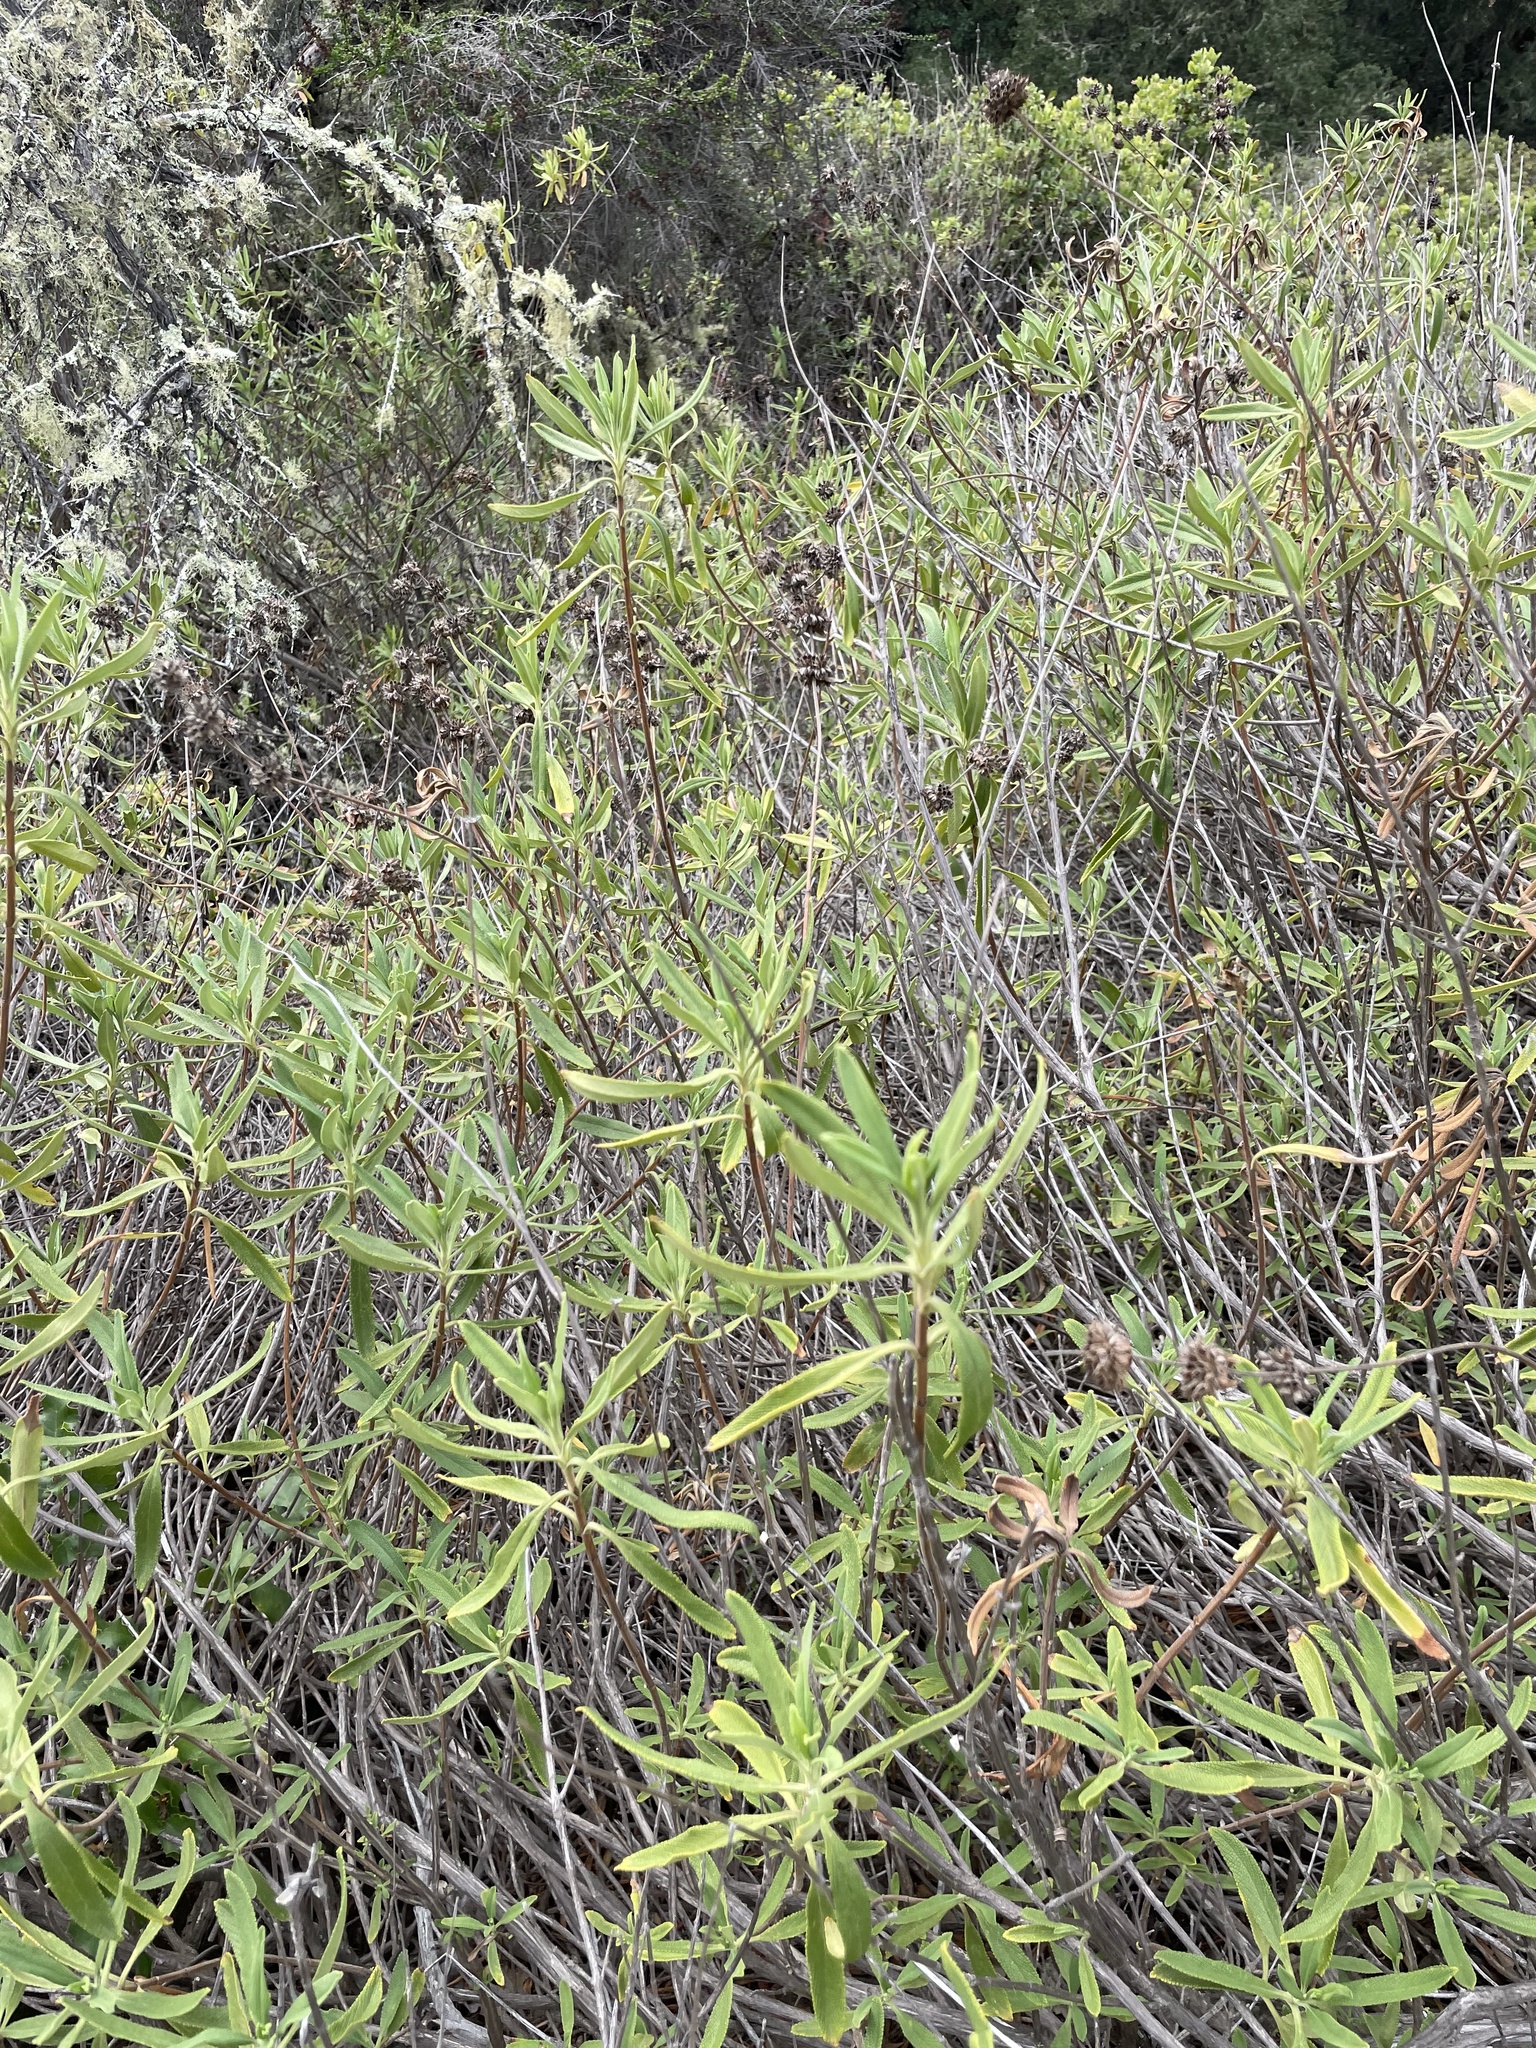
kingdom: Plantae
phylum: Tracheophyta
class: Magnoliopsida
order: Lamiales
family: Lamiaceae
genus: Salvia
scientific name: Salvia mellifera
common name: Black sage
